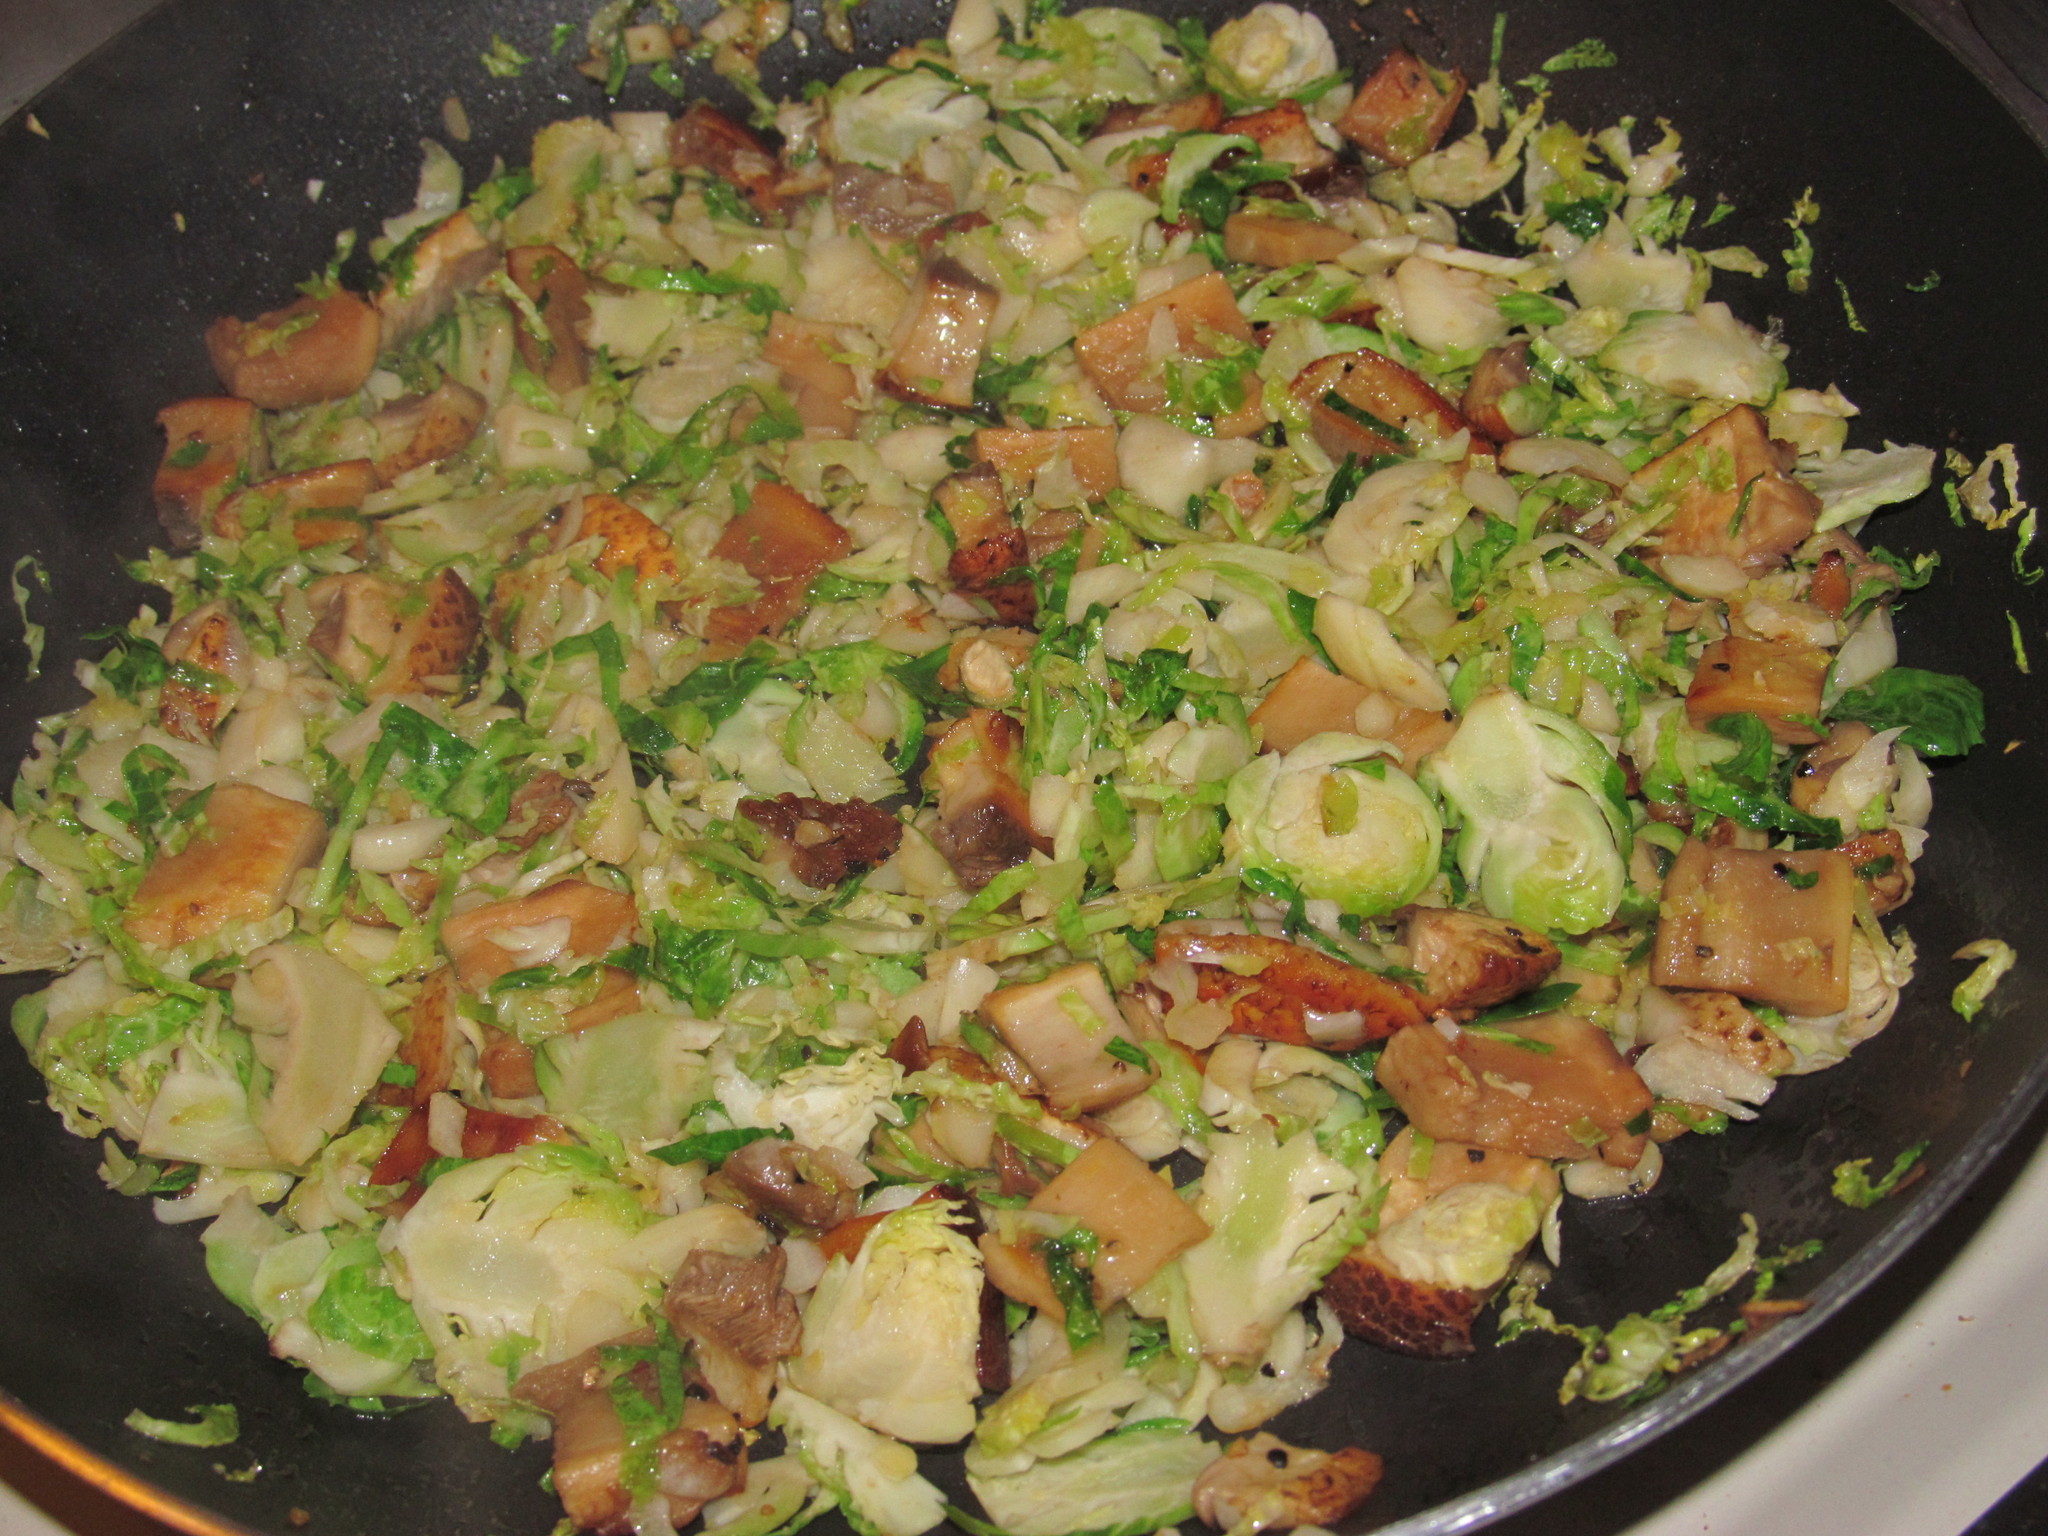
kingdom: Fungi
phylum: Basidiomycota
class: Agaricomycetes
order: Agaricales
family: Agaricaceae
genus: Agaricus
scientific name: Agaricus augustus
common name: Prince
